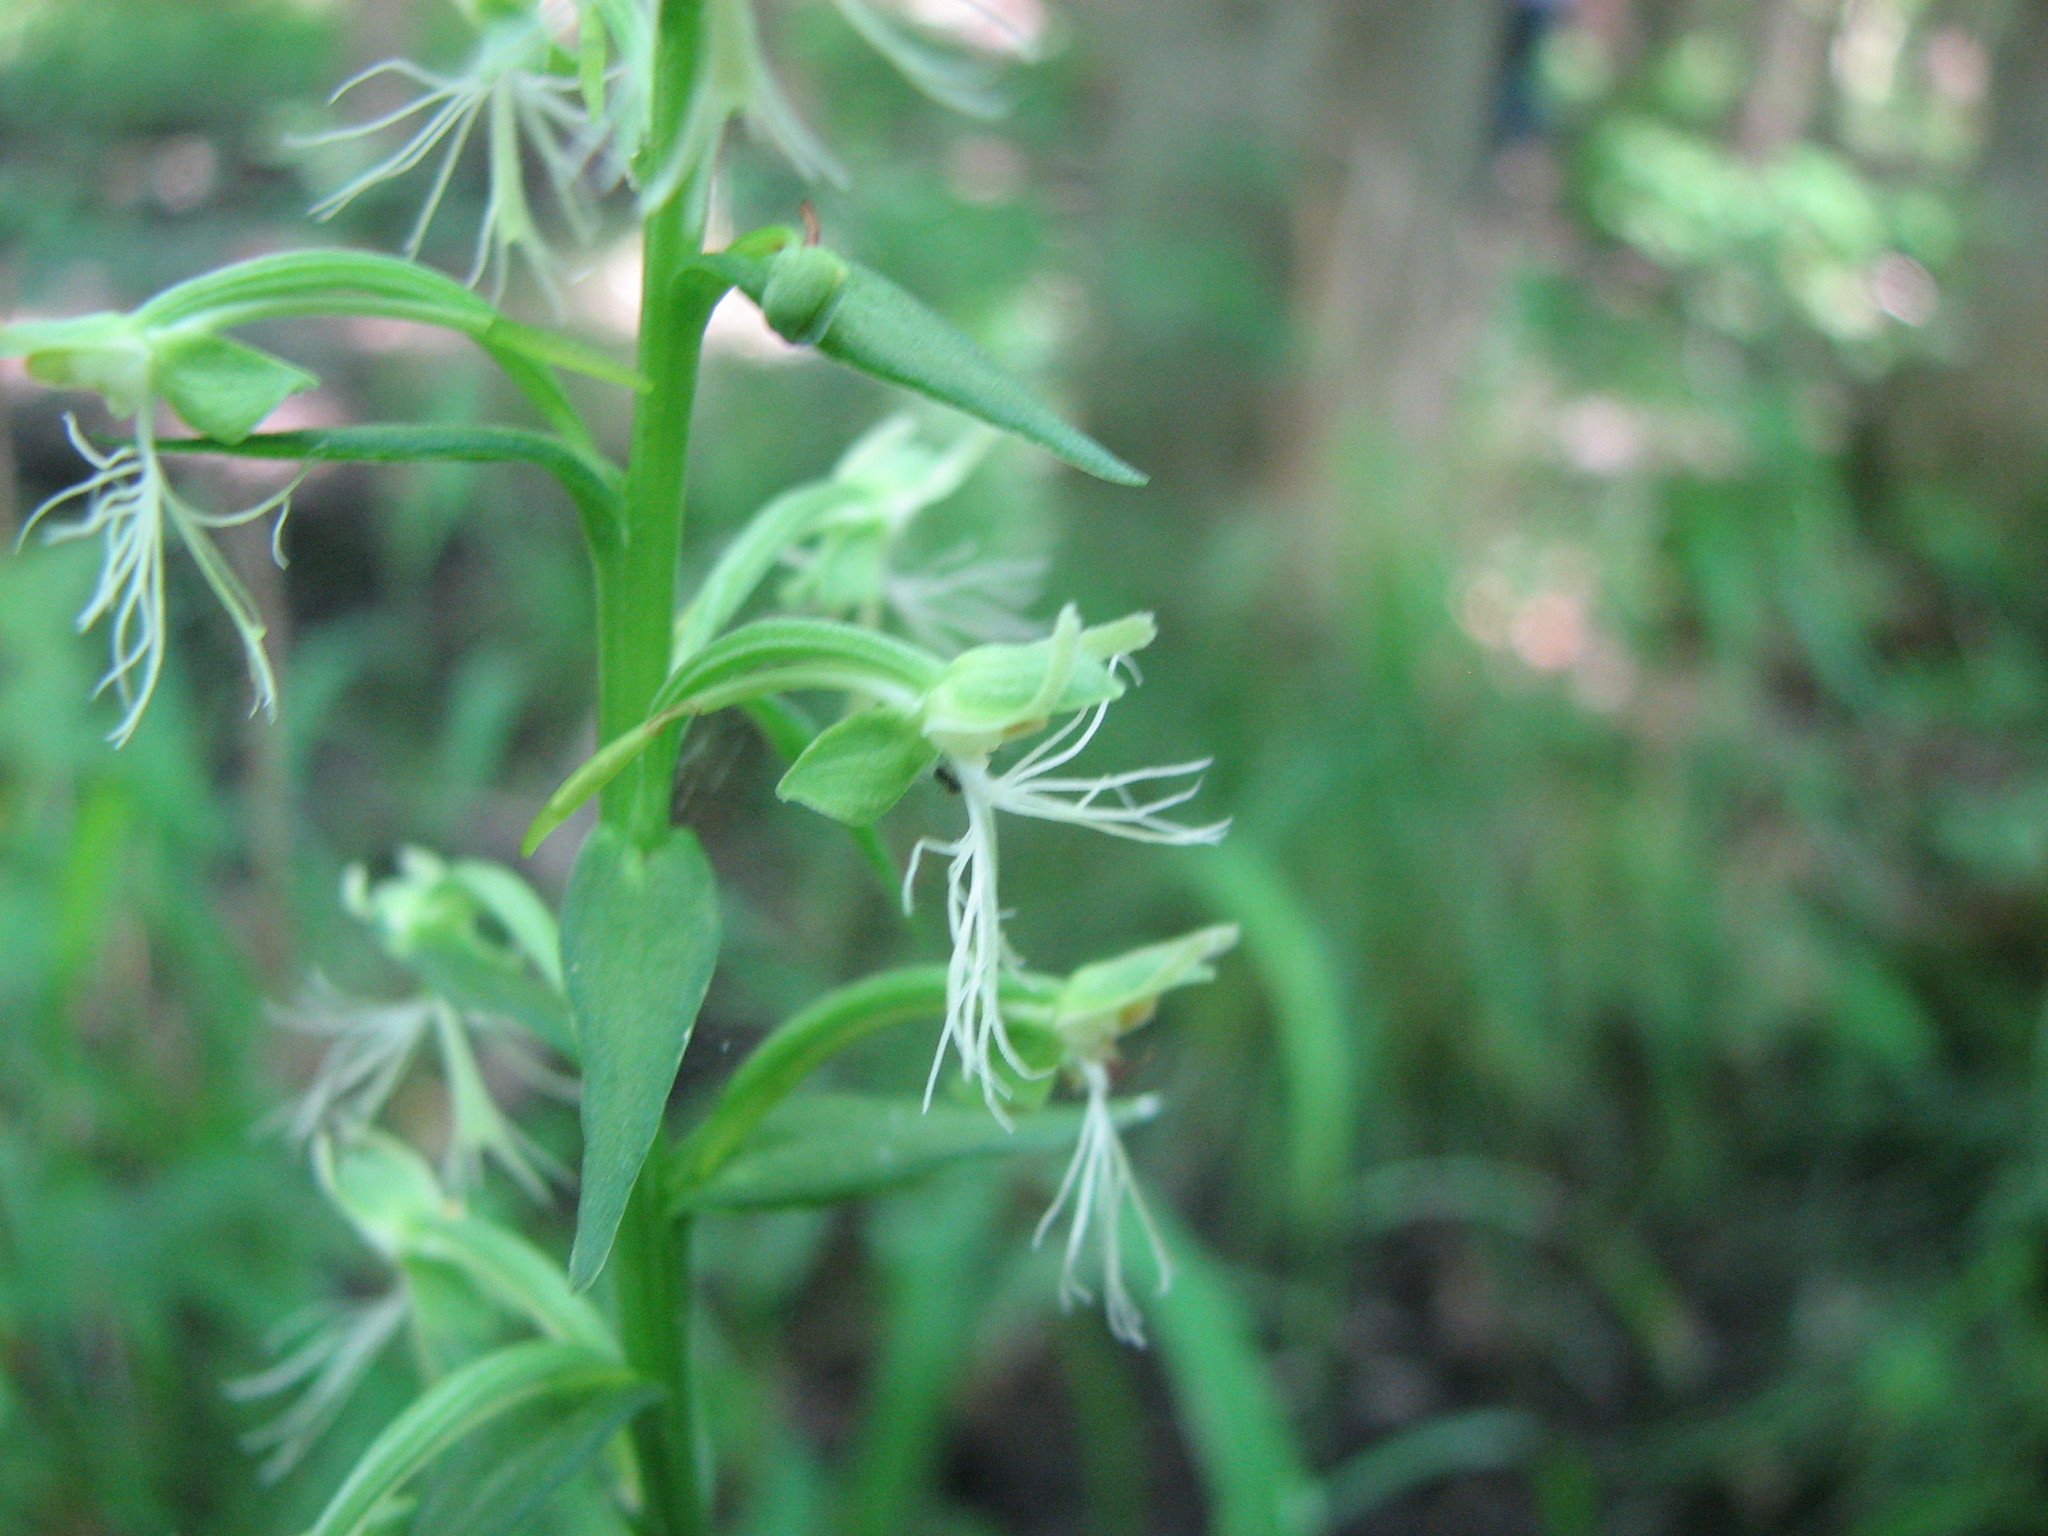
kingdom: Plantae
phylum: Tracheophyta
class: Liliopsida
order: Asparagales
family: Orchidaceae
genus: Platanthera
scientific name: Platanthera lacera
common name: Green fringed orchid
